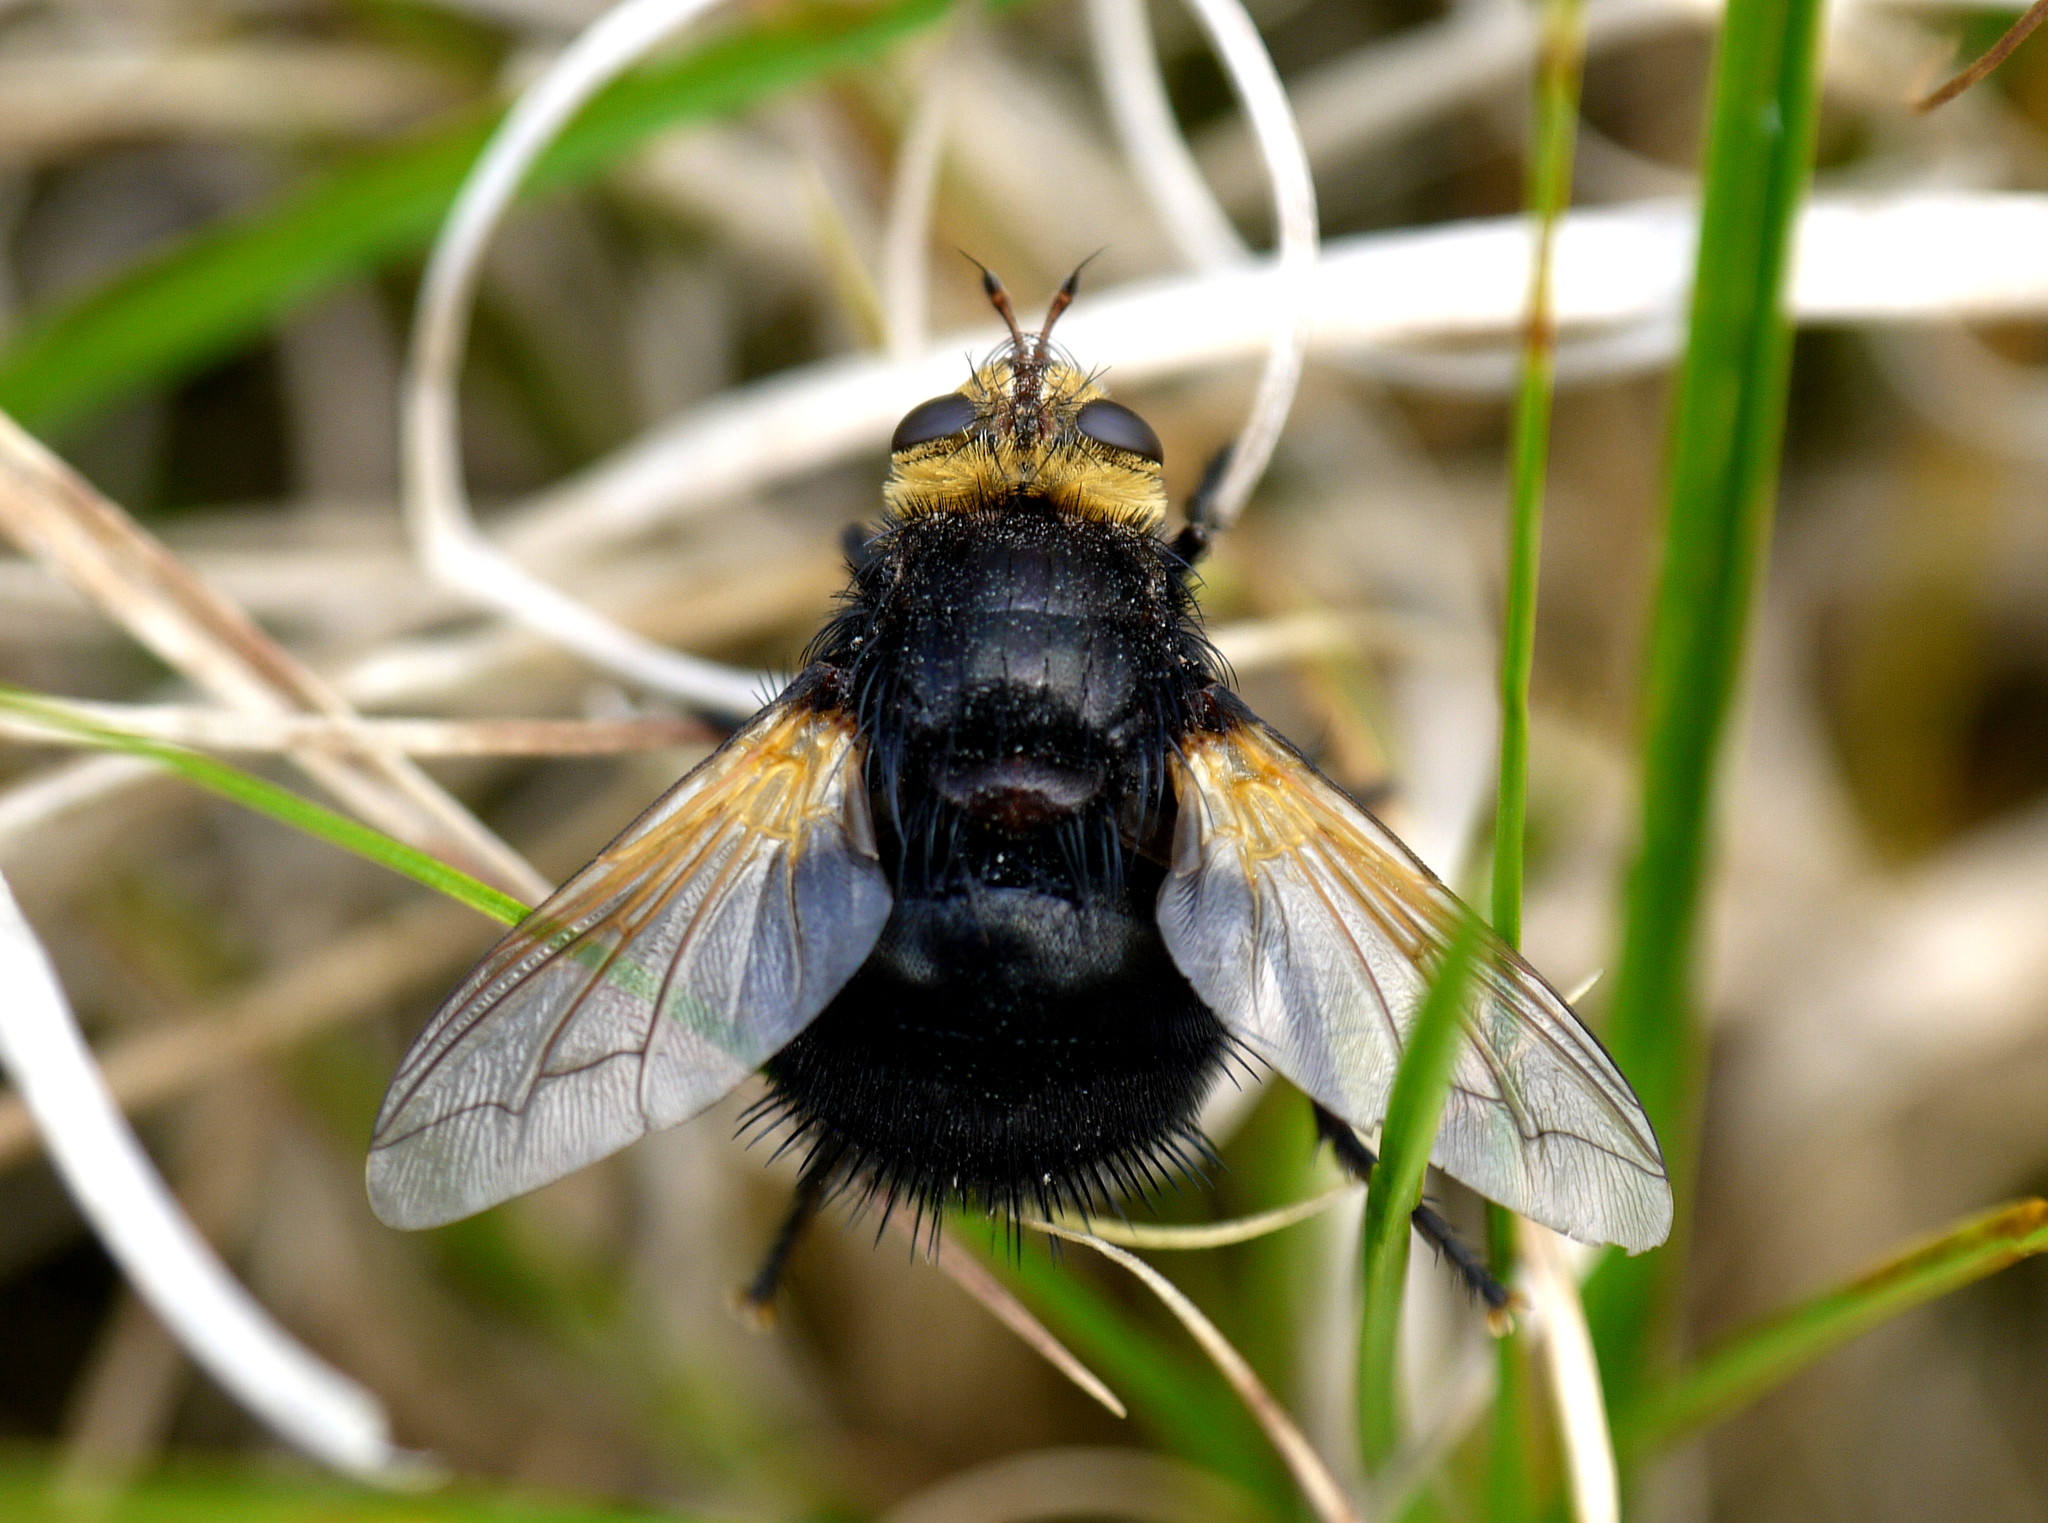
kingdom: Animalia
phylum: Arthropoda
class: Insecta
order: Diptera
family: Tachinidae
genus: Tachina
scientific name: Tachina grossa
